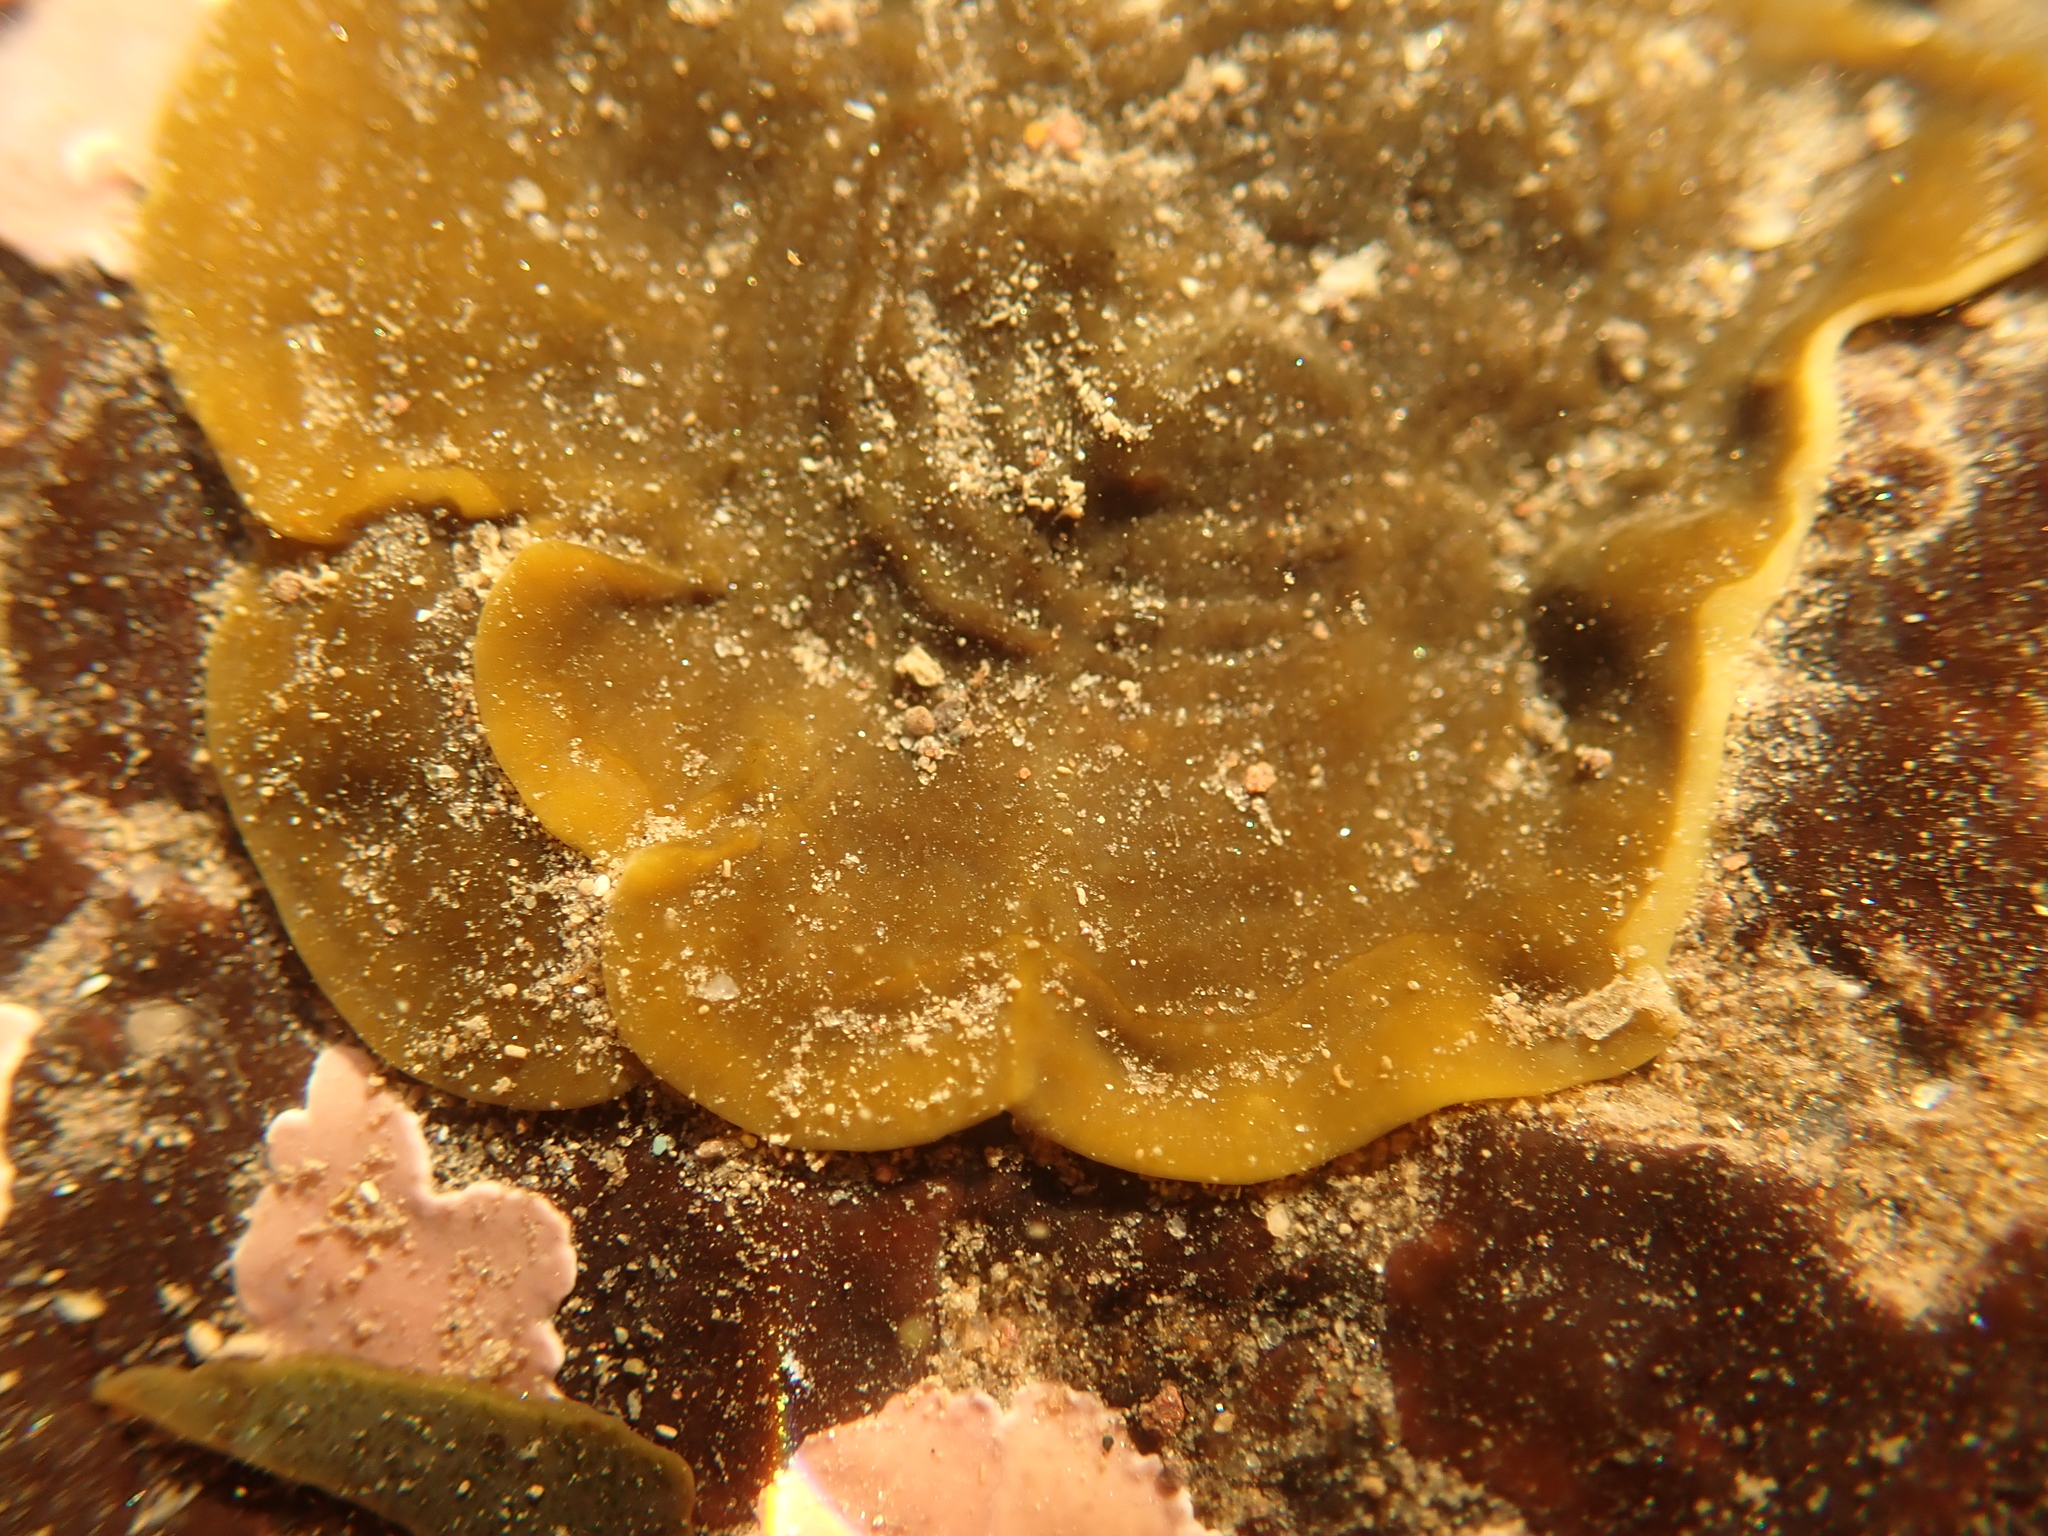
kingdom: Chromista
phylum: Ochrophyta
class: Phaeophyceae
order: Ralfsiales
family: Ralfsiaceae
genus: Ralfsia
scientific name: Ralfsia fungiformis
